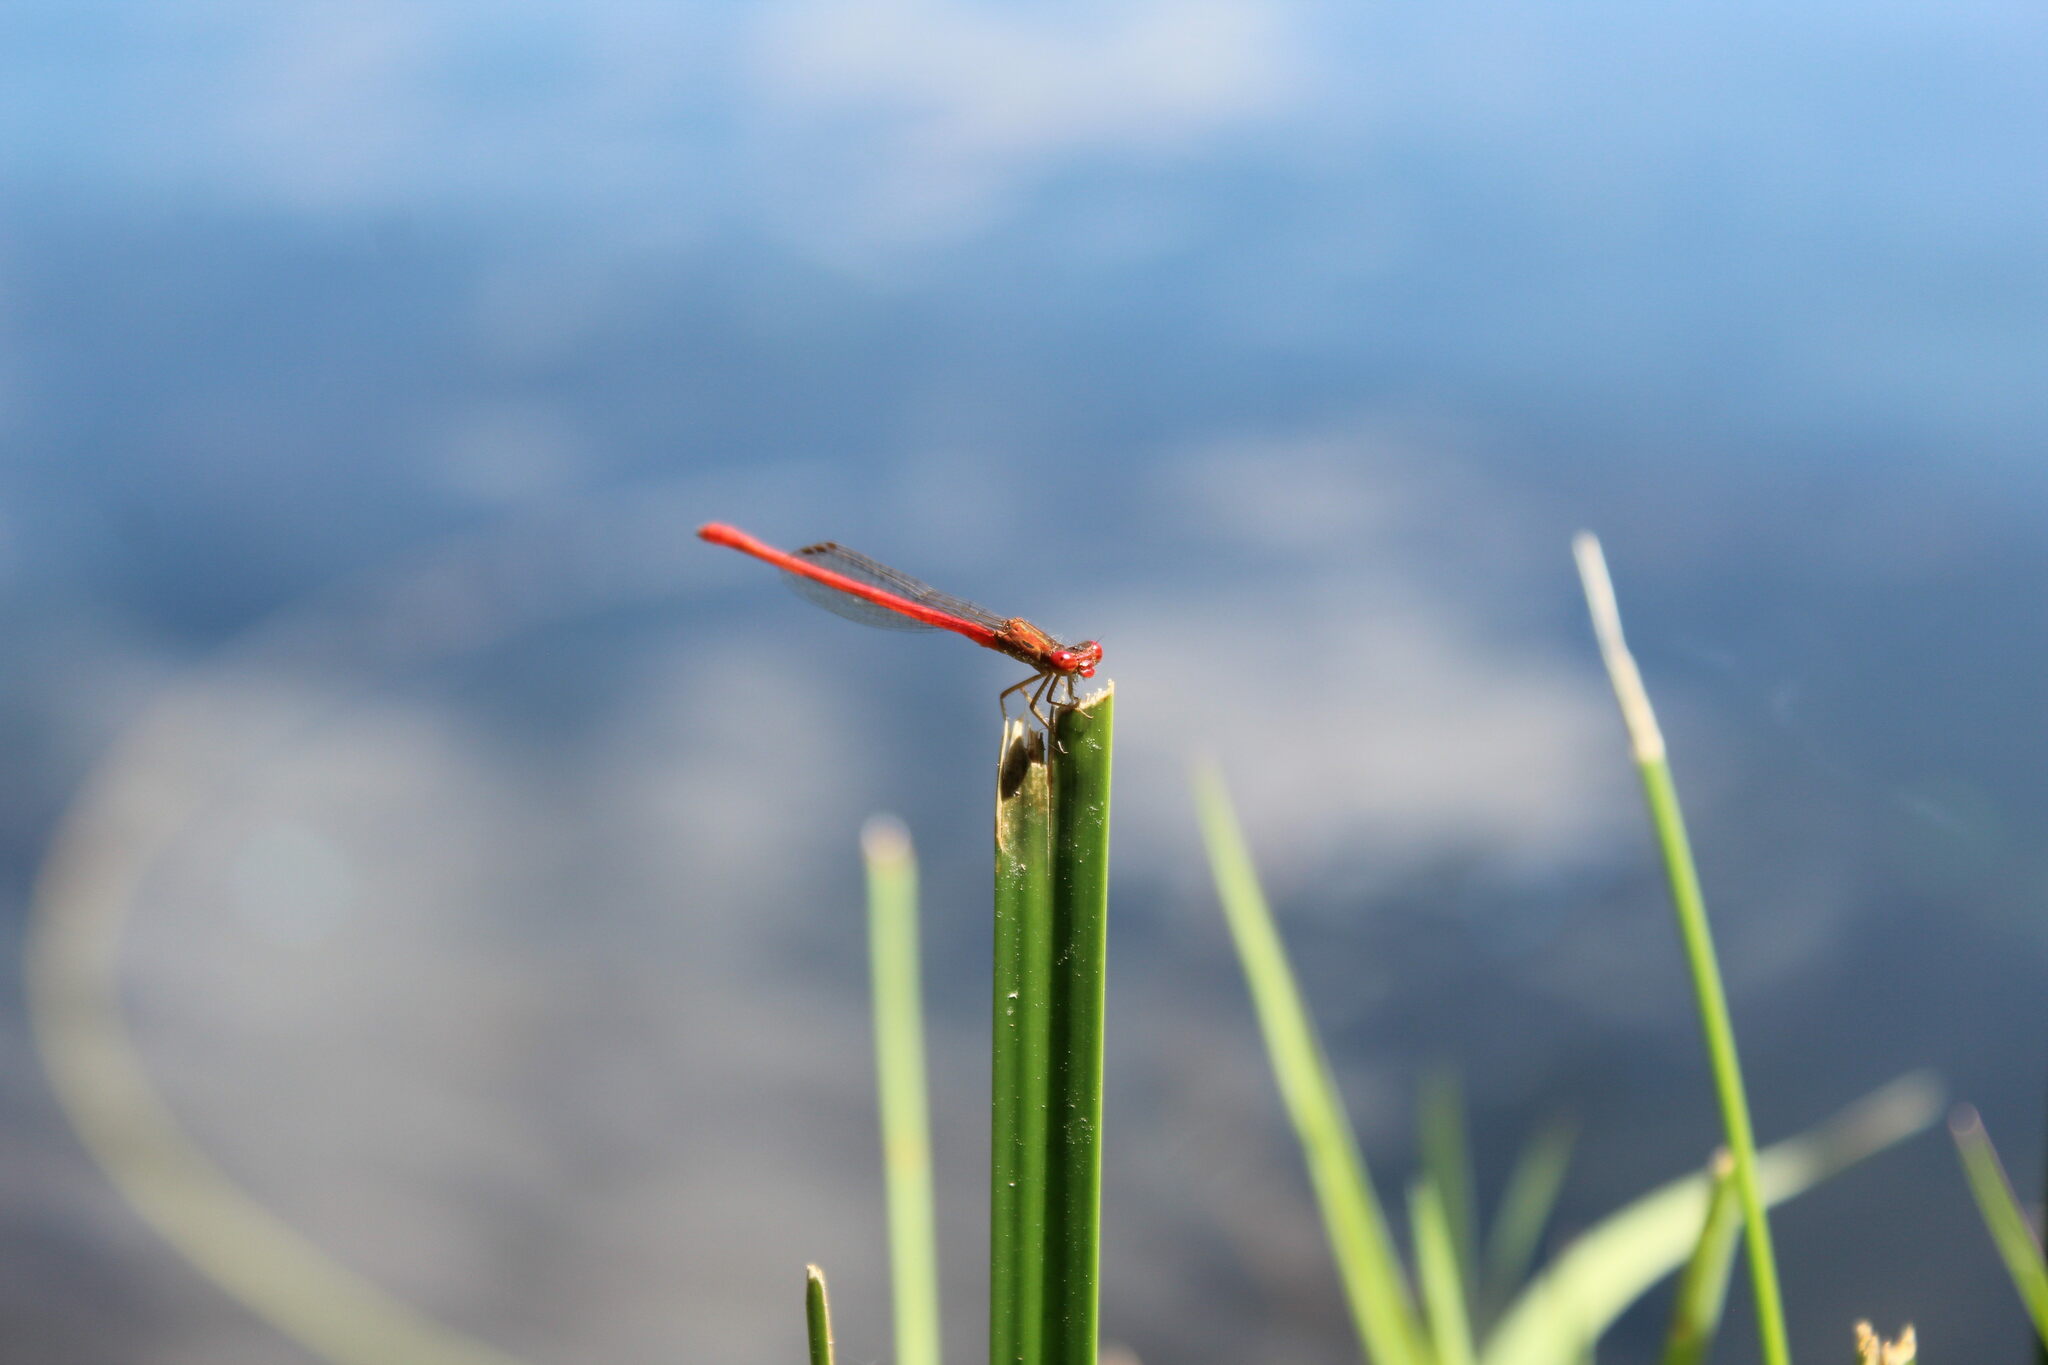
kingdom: Animalia
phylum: Arthropoda
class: Insecta
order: Odonata
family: Coenagrionidae
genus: Telebasis
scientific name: Telebasis salva
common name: Desert firetail
